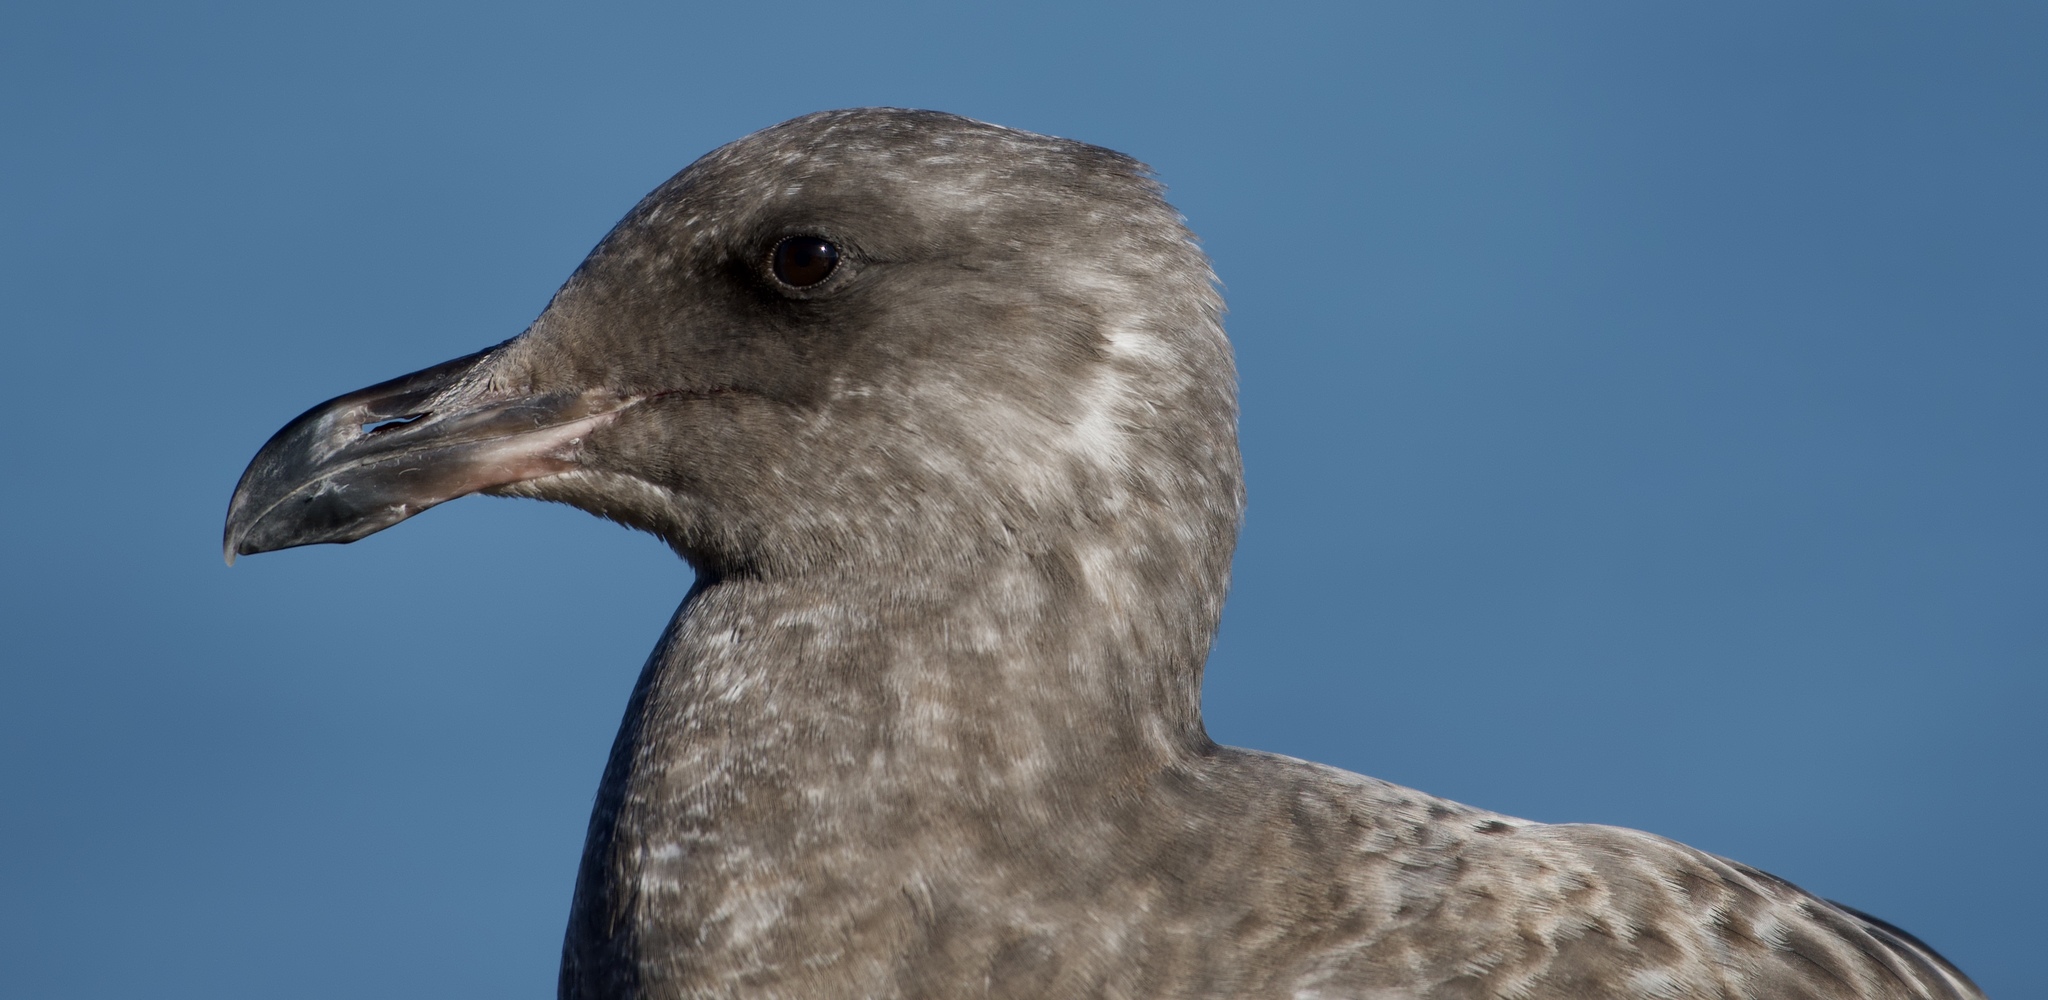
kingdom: Animalia
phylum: Chordata
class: Aves
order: Charadriiformes
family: Laridae
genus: Larus
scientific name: Larus
